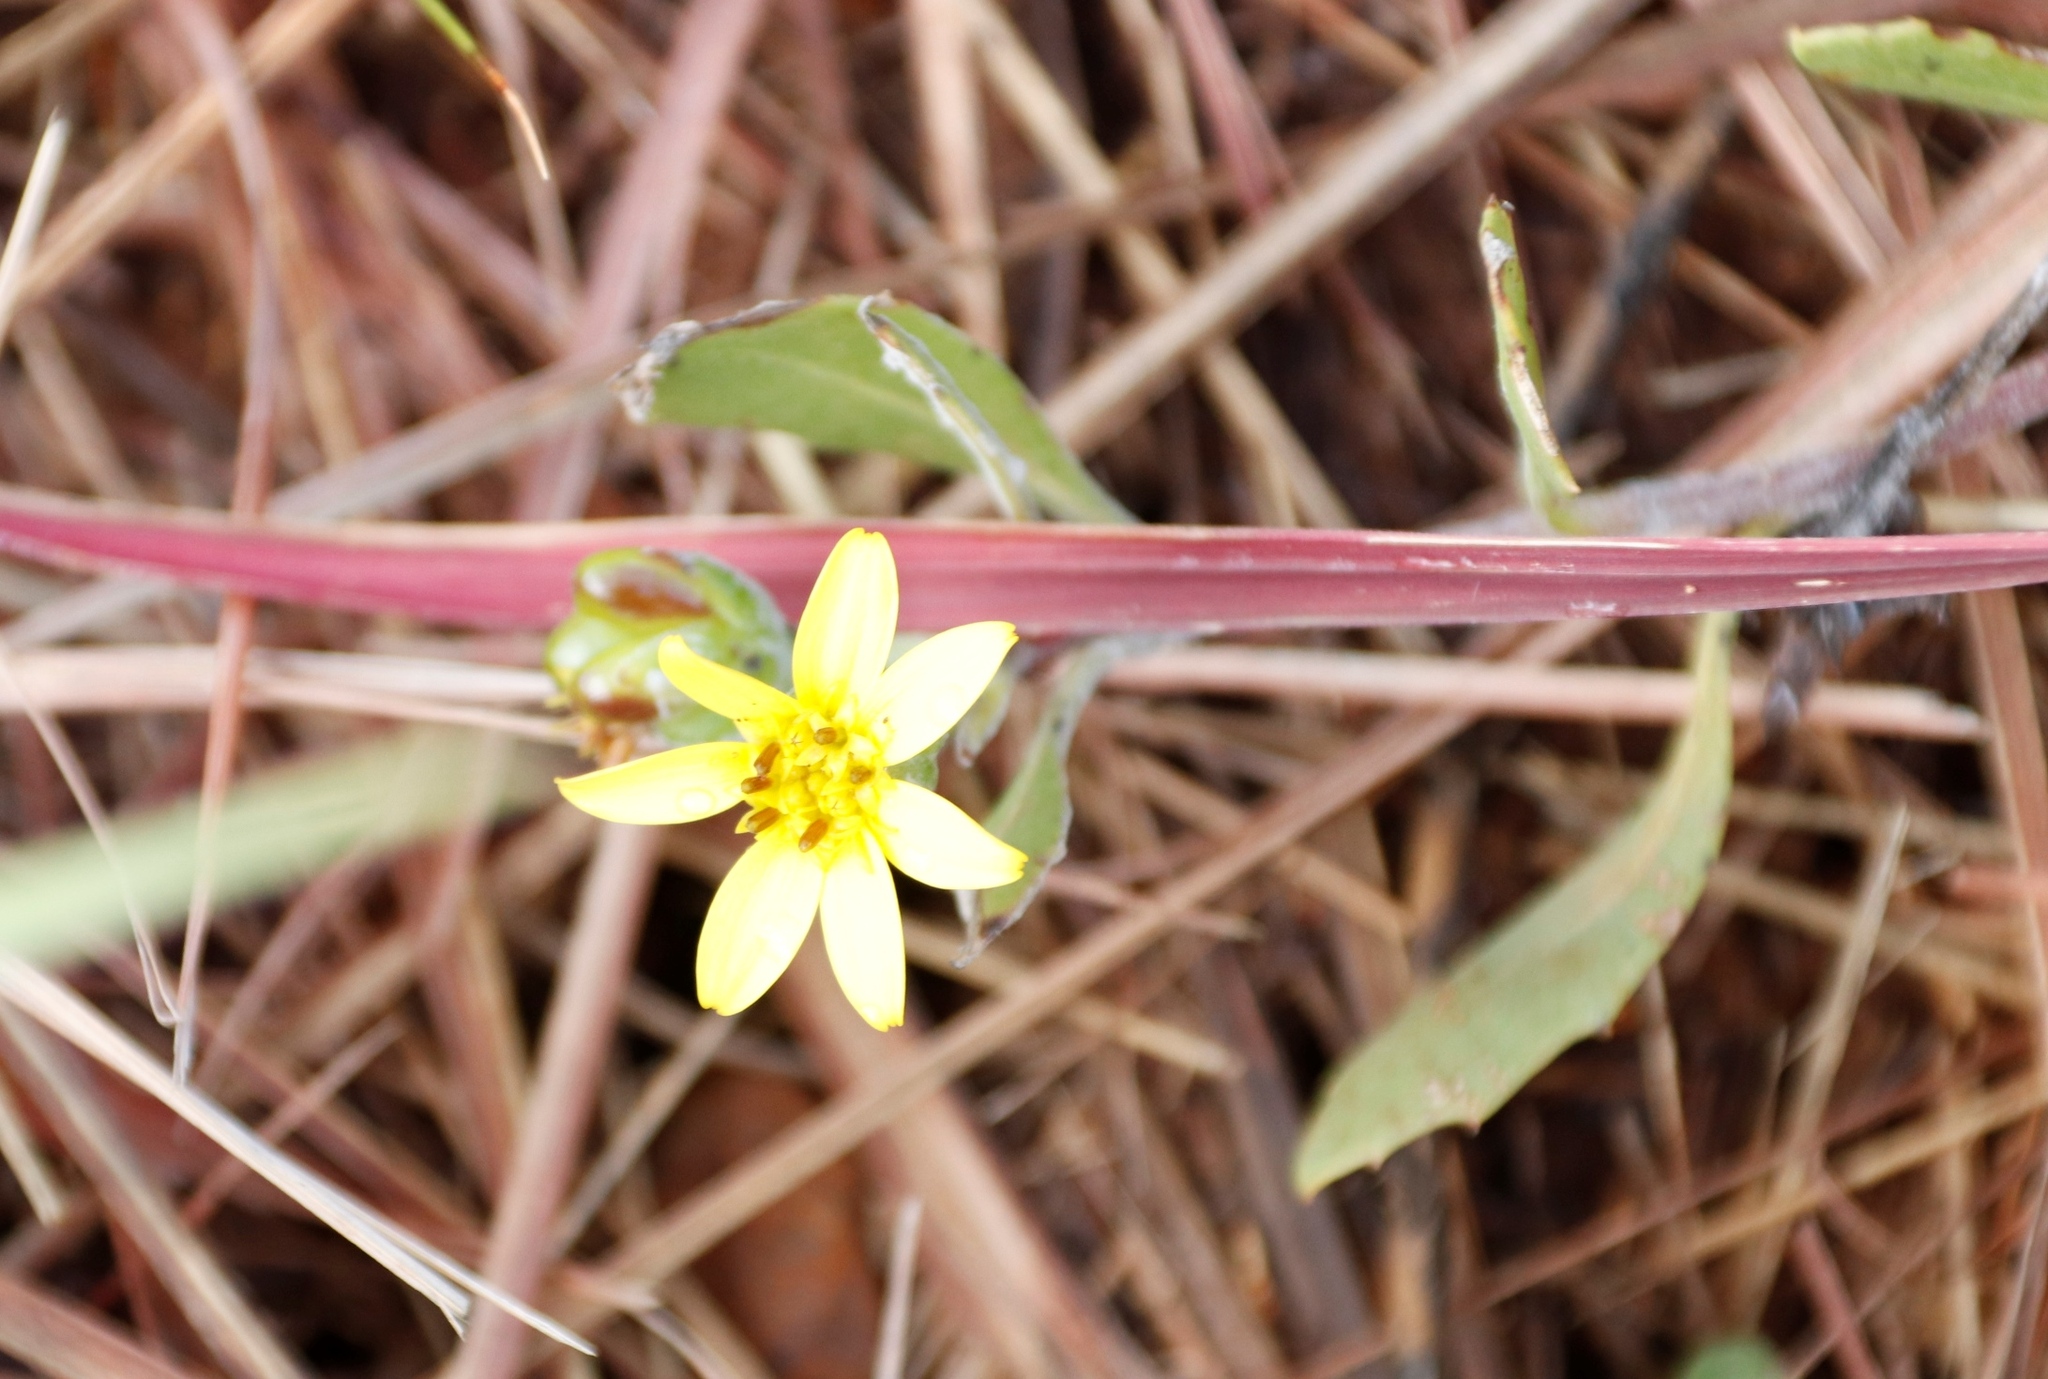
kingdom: Plantae
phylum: Tracheophyta
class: Magnoliopsida
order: Asterales
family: Asteraceae
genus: Osteospermum
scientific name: Osteospermum moniliferum
